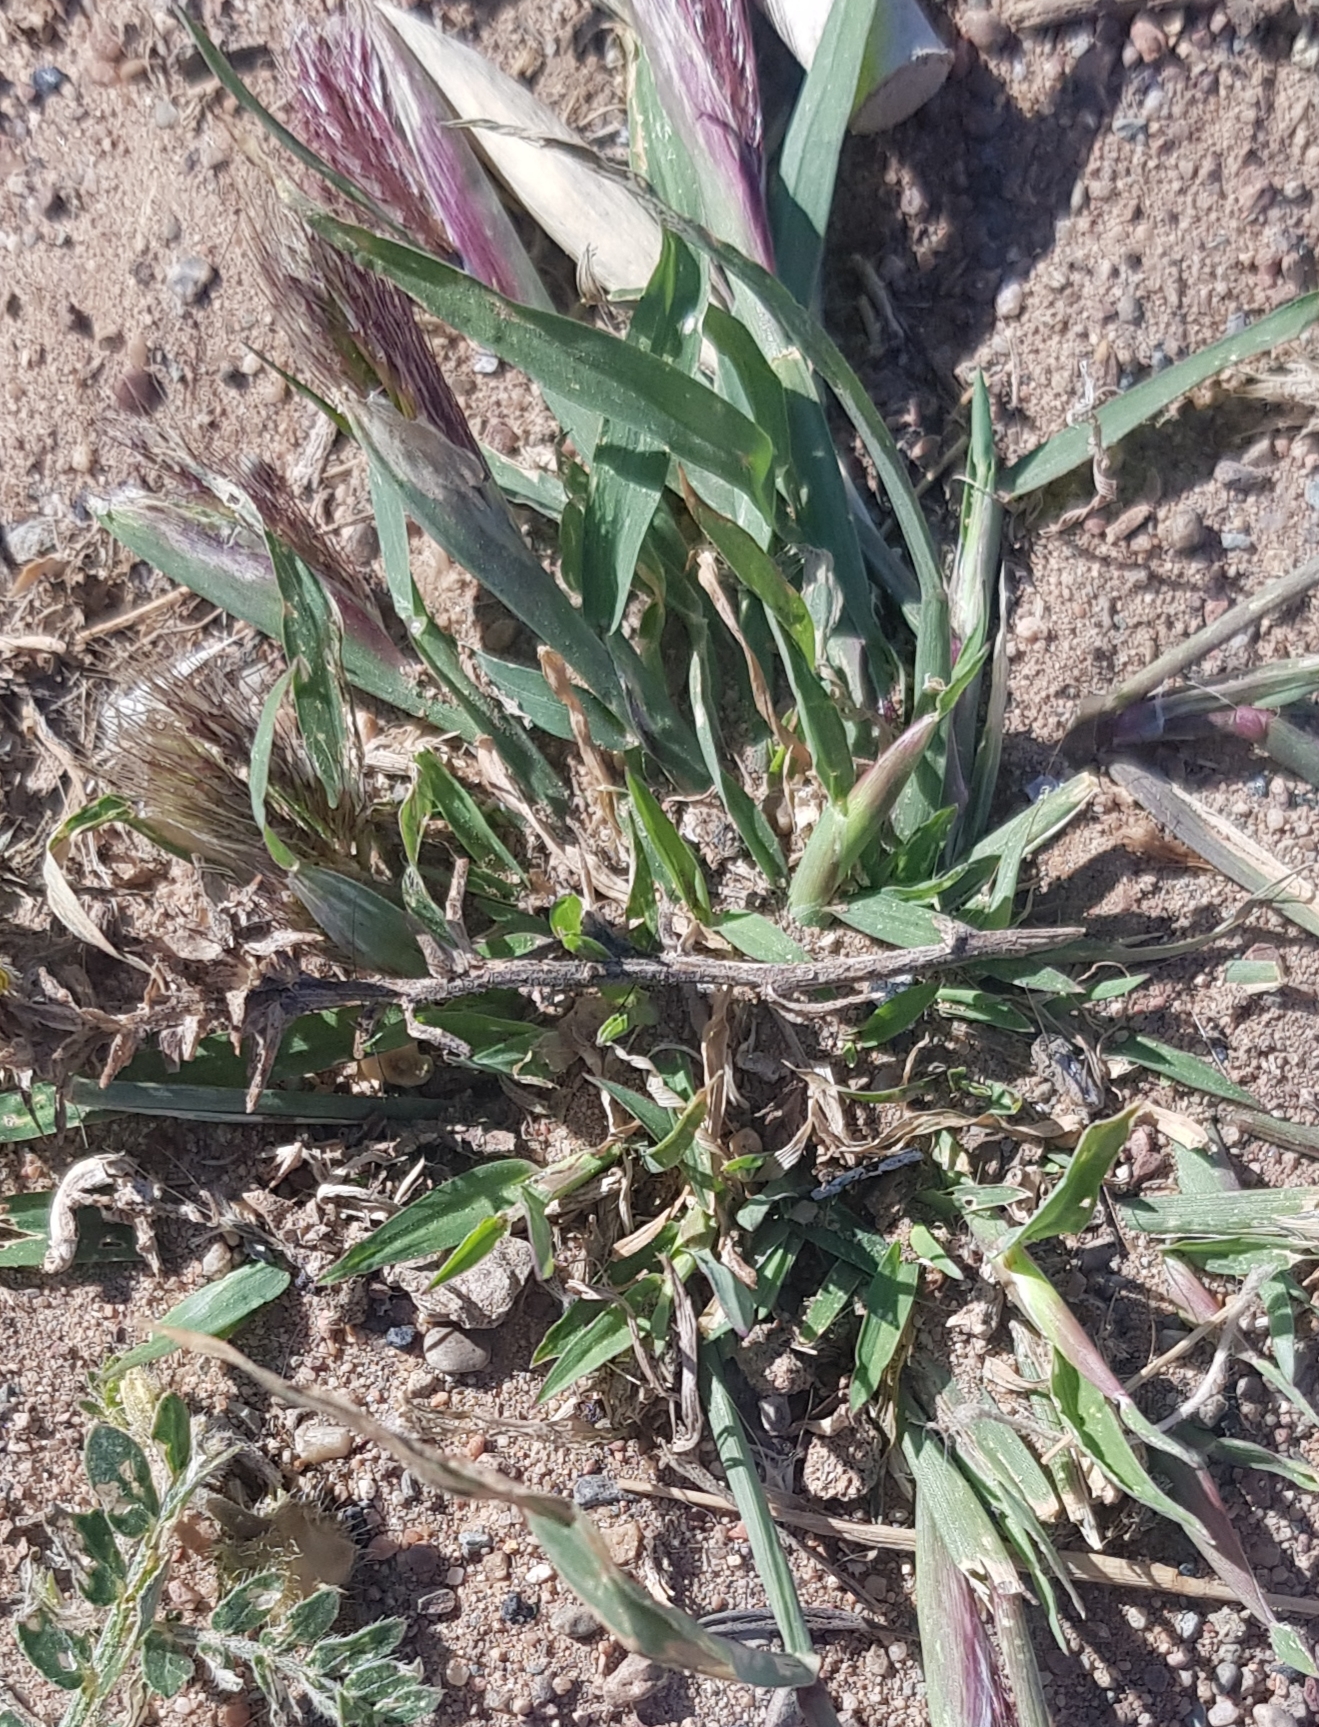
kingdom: Plantae
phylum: Tracheophyta
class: Liliopsida
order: Poales
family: Poaceae
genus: Chloris
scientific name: Chloris virgata
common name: Feathery rhodes-grass
